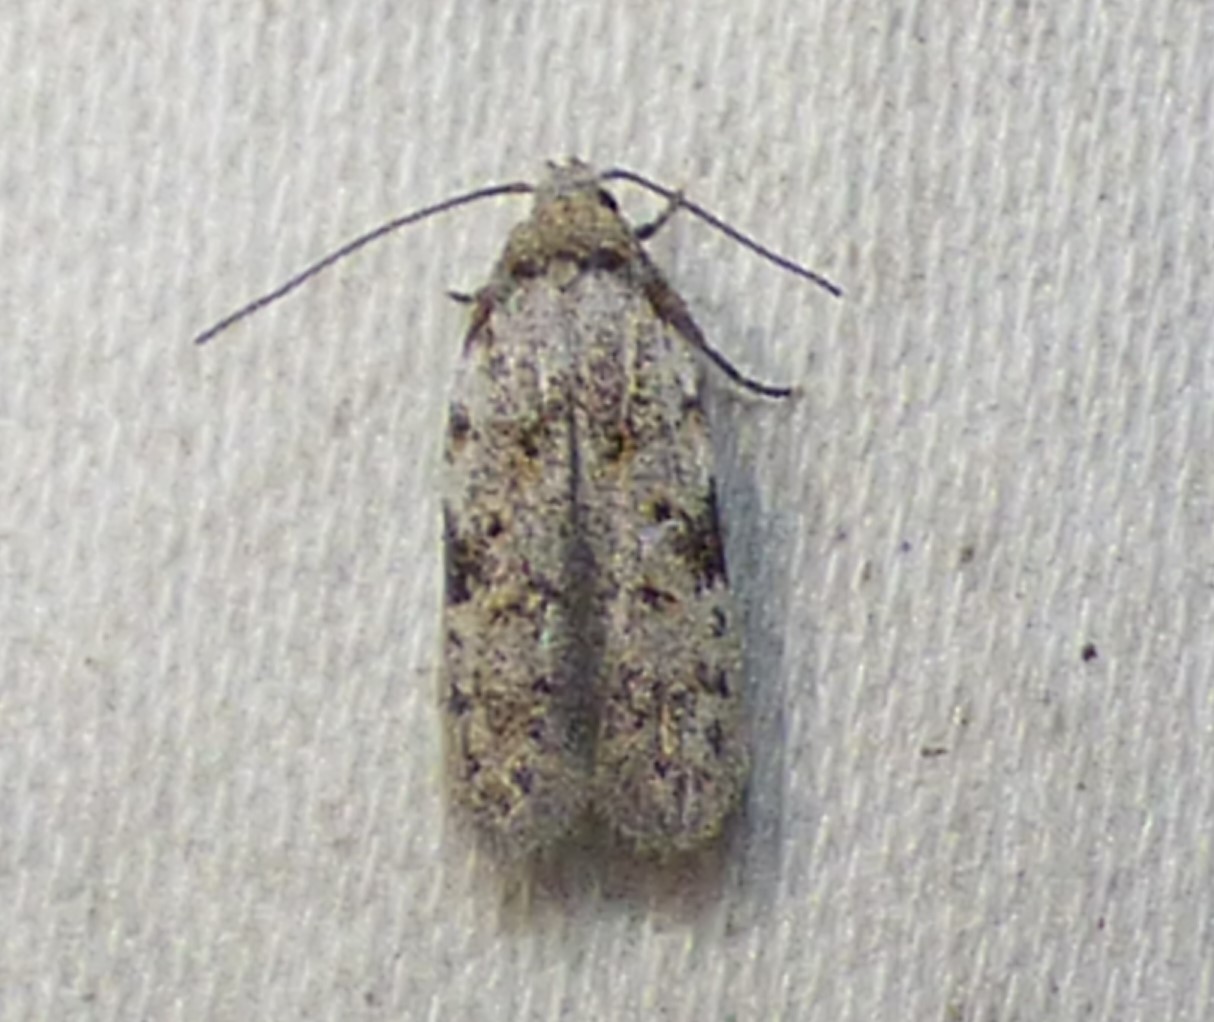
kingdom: Animalia
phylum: Arthropoda
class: Insecta
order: Lepidoptera
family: Autostichidae
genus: Taygete
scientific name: Taygete attributella
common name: Triangle-marked twirler moth
